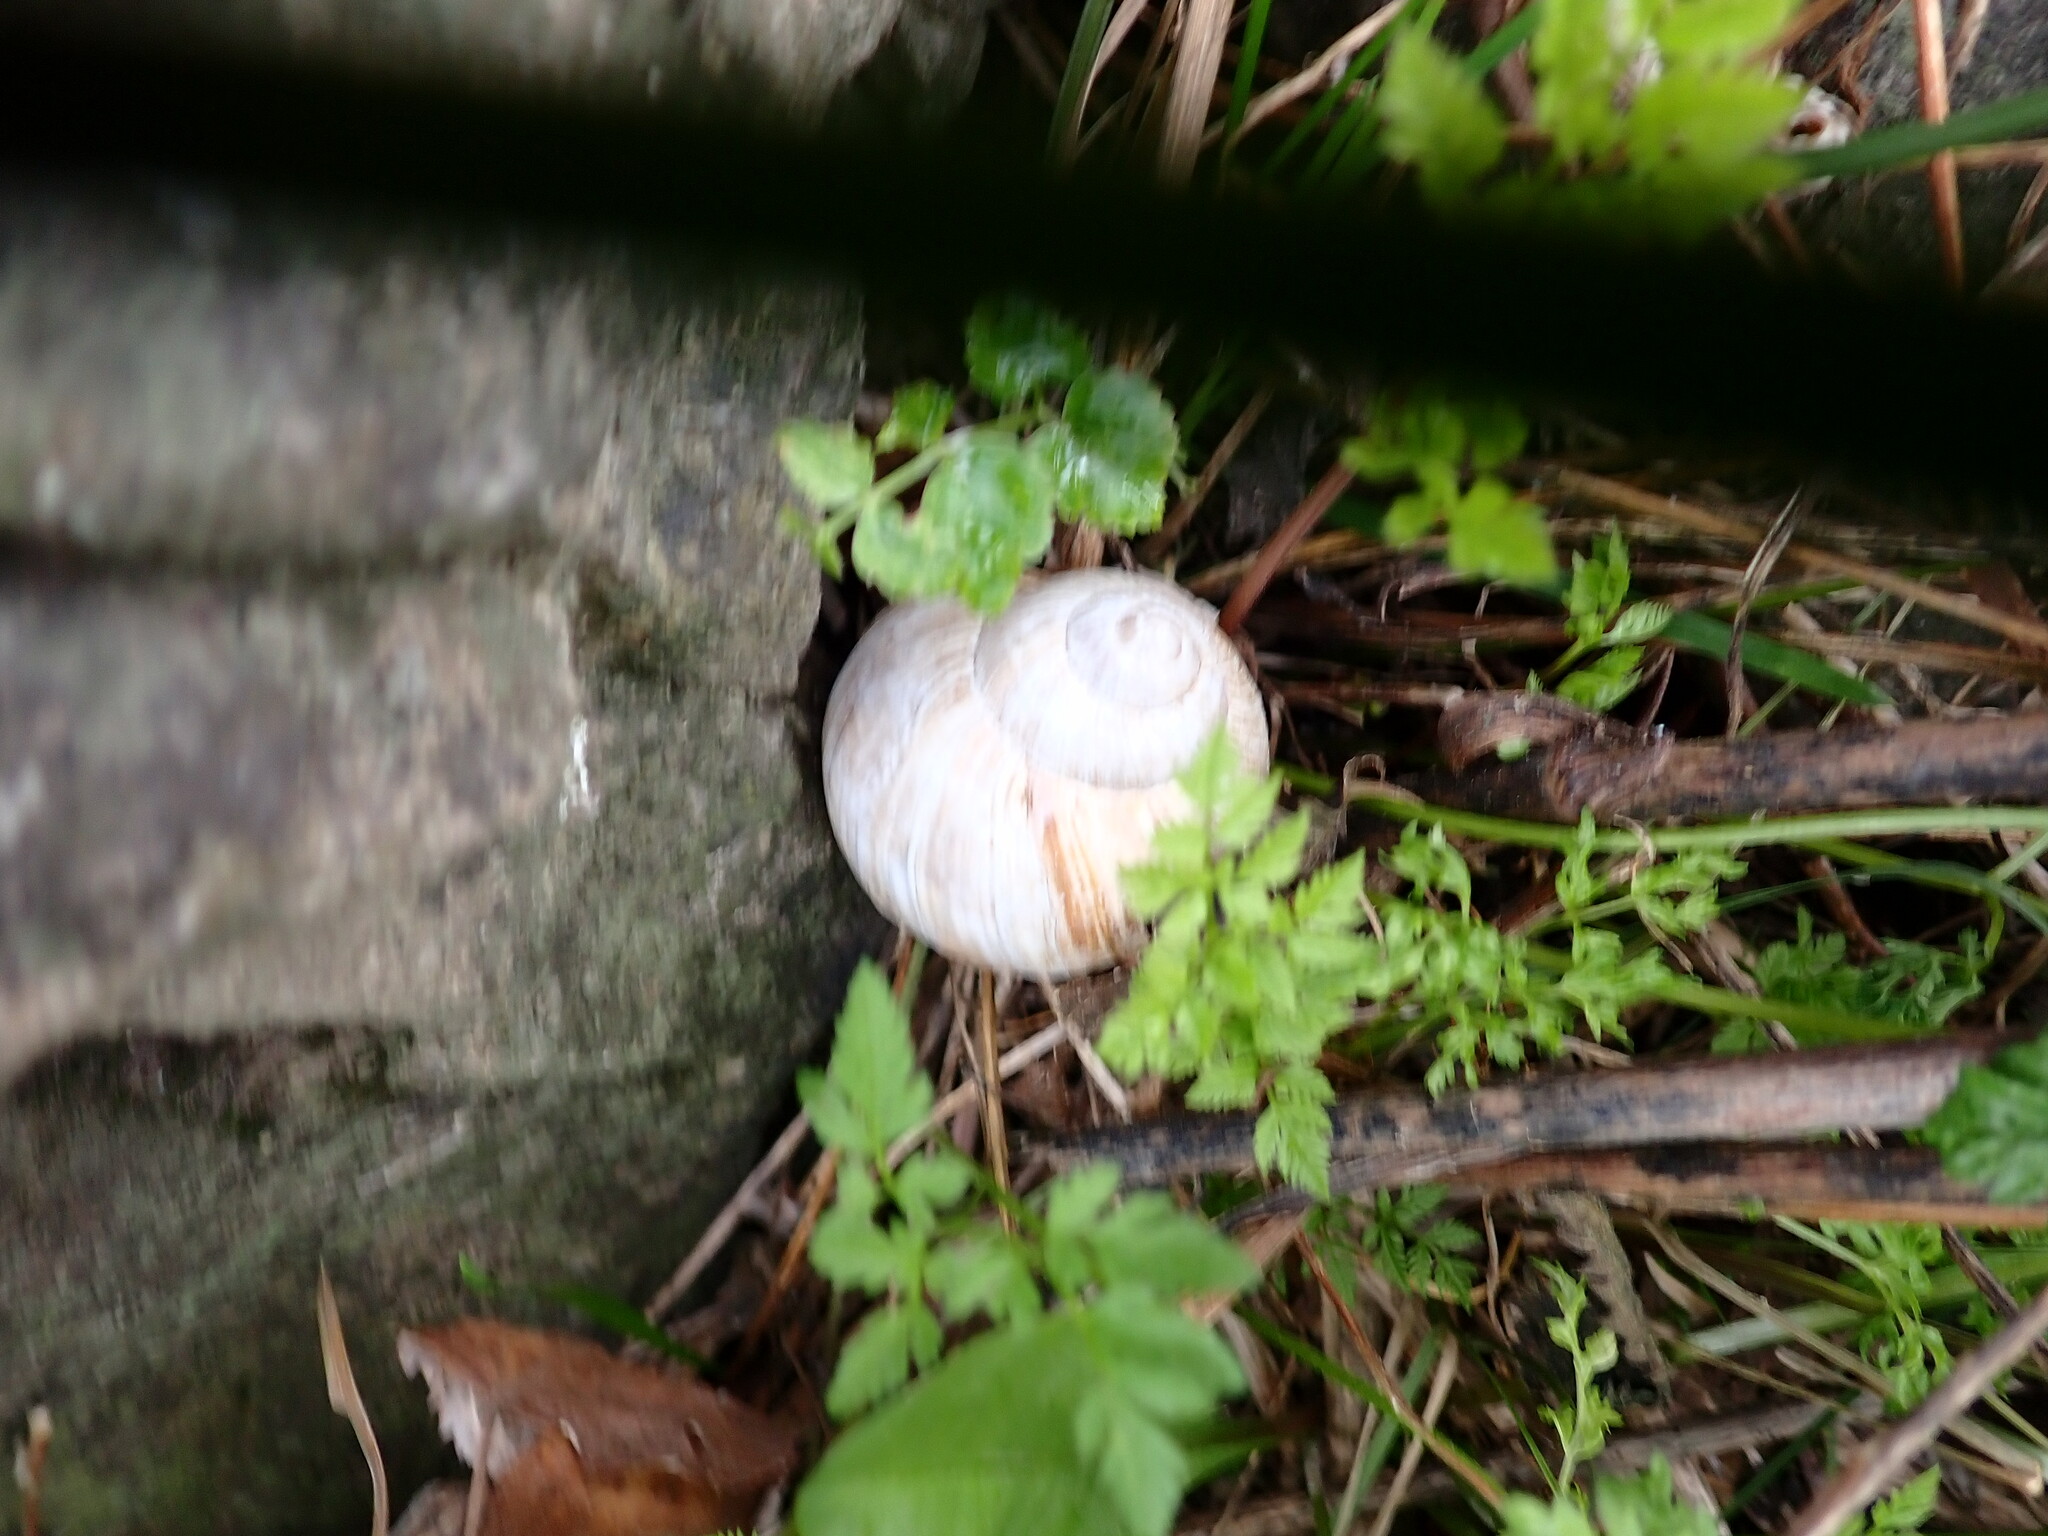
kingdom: Animalia
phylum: Mollusca
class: Gastropoda
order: Stylommatophora
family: Helicidae
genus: Helix
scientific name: Helix pomatia
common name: Roman snail
